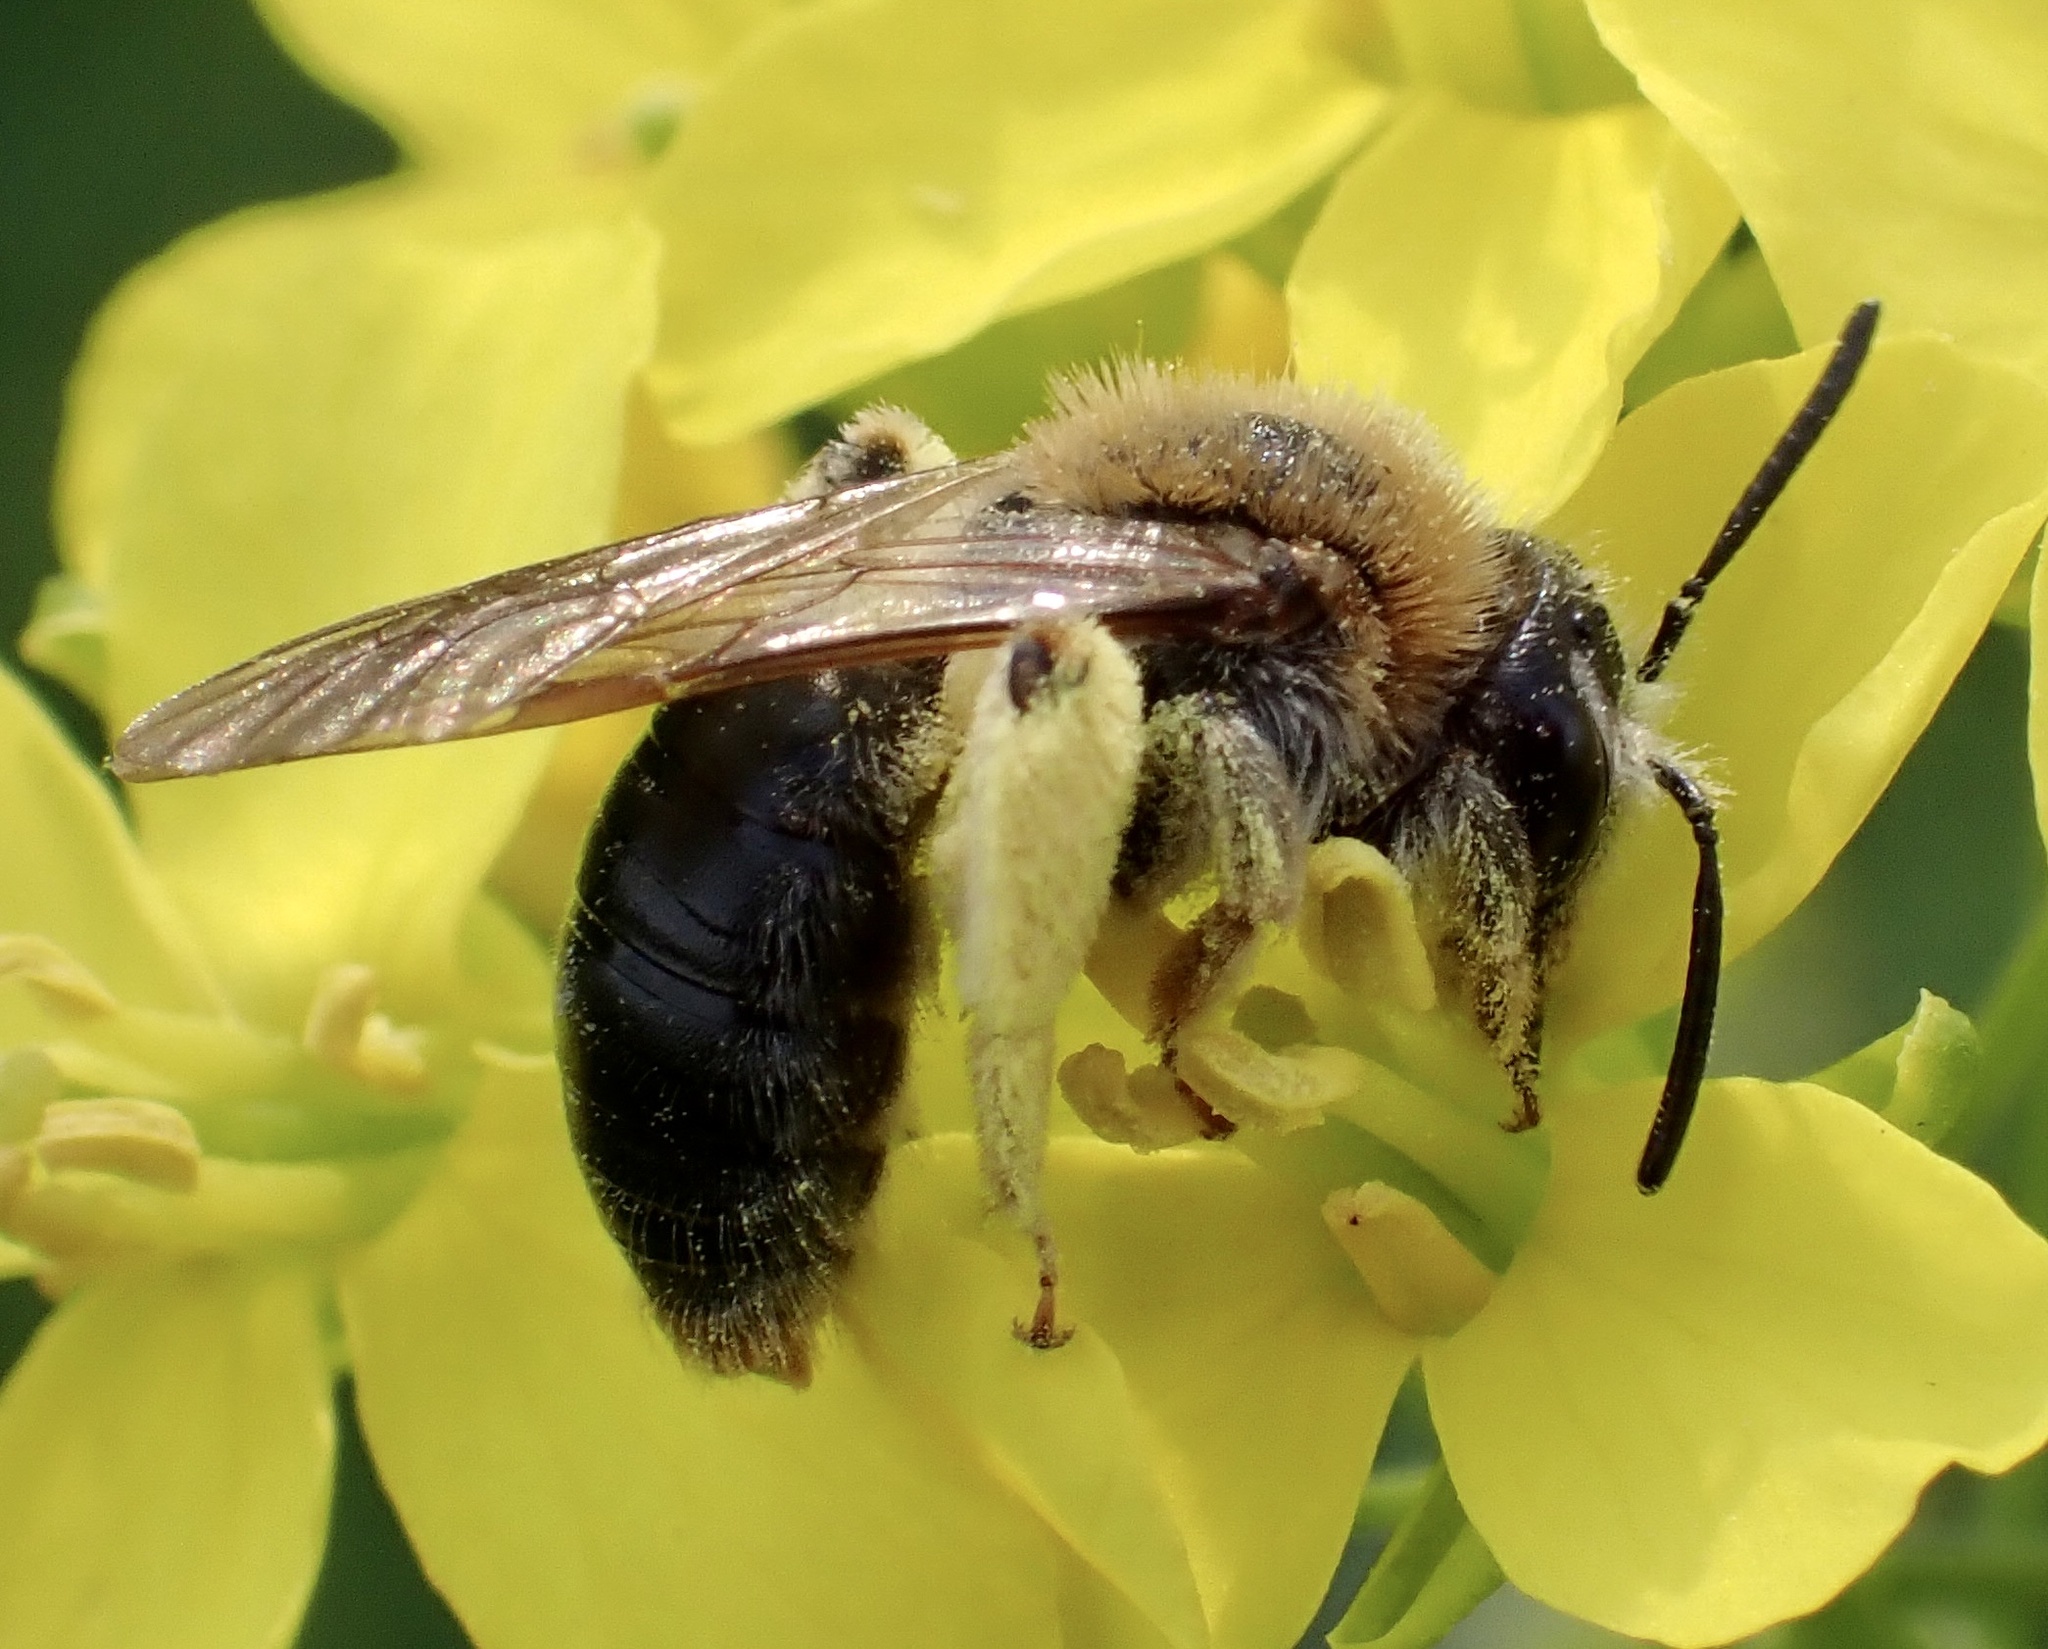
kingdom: Animalia
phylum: Arthropoda
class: Insecta
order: Hymenoptera
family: Andrenidae
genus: Andrena
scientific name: Andrena haemorrhoa
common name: Early mining bee
